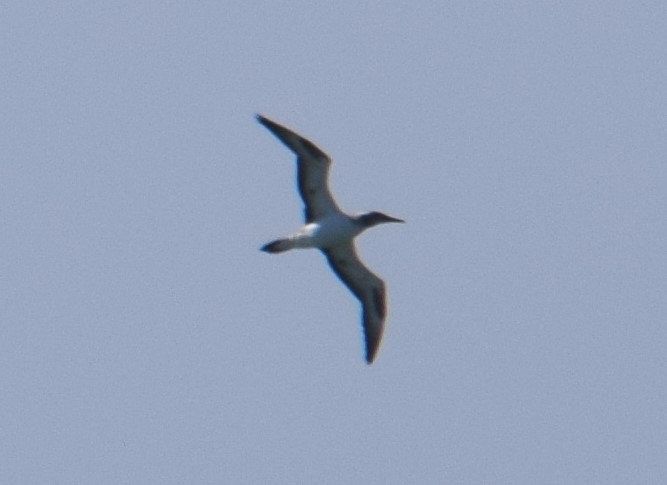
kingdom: Animalia
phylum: Chordata
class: Aves
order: Suliformes
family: Sulidae
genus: Morus
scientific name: Morus serrator
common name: Australasian gannet
